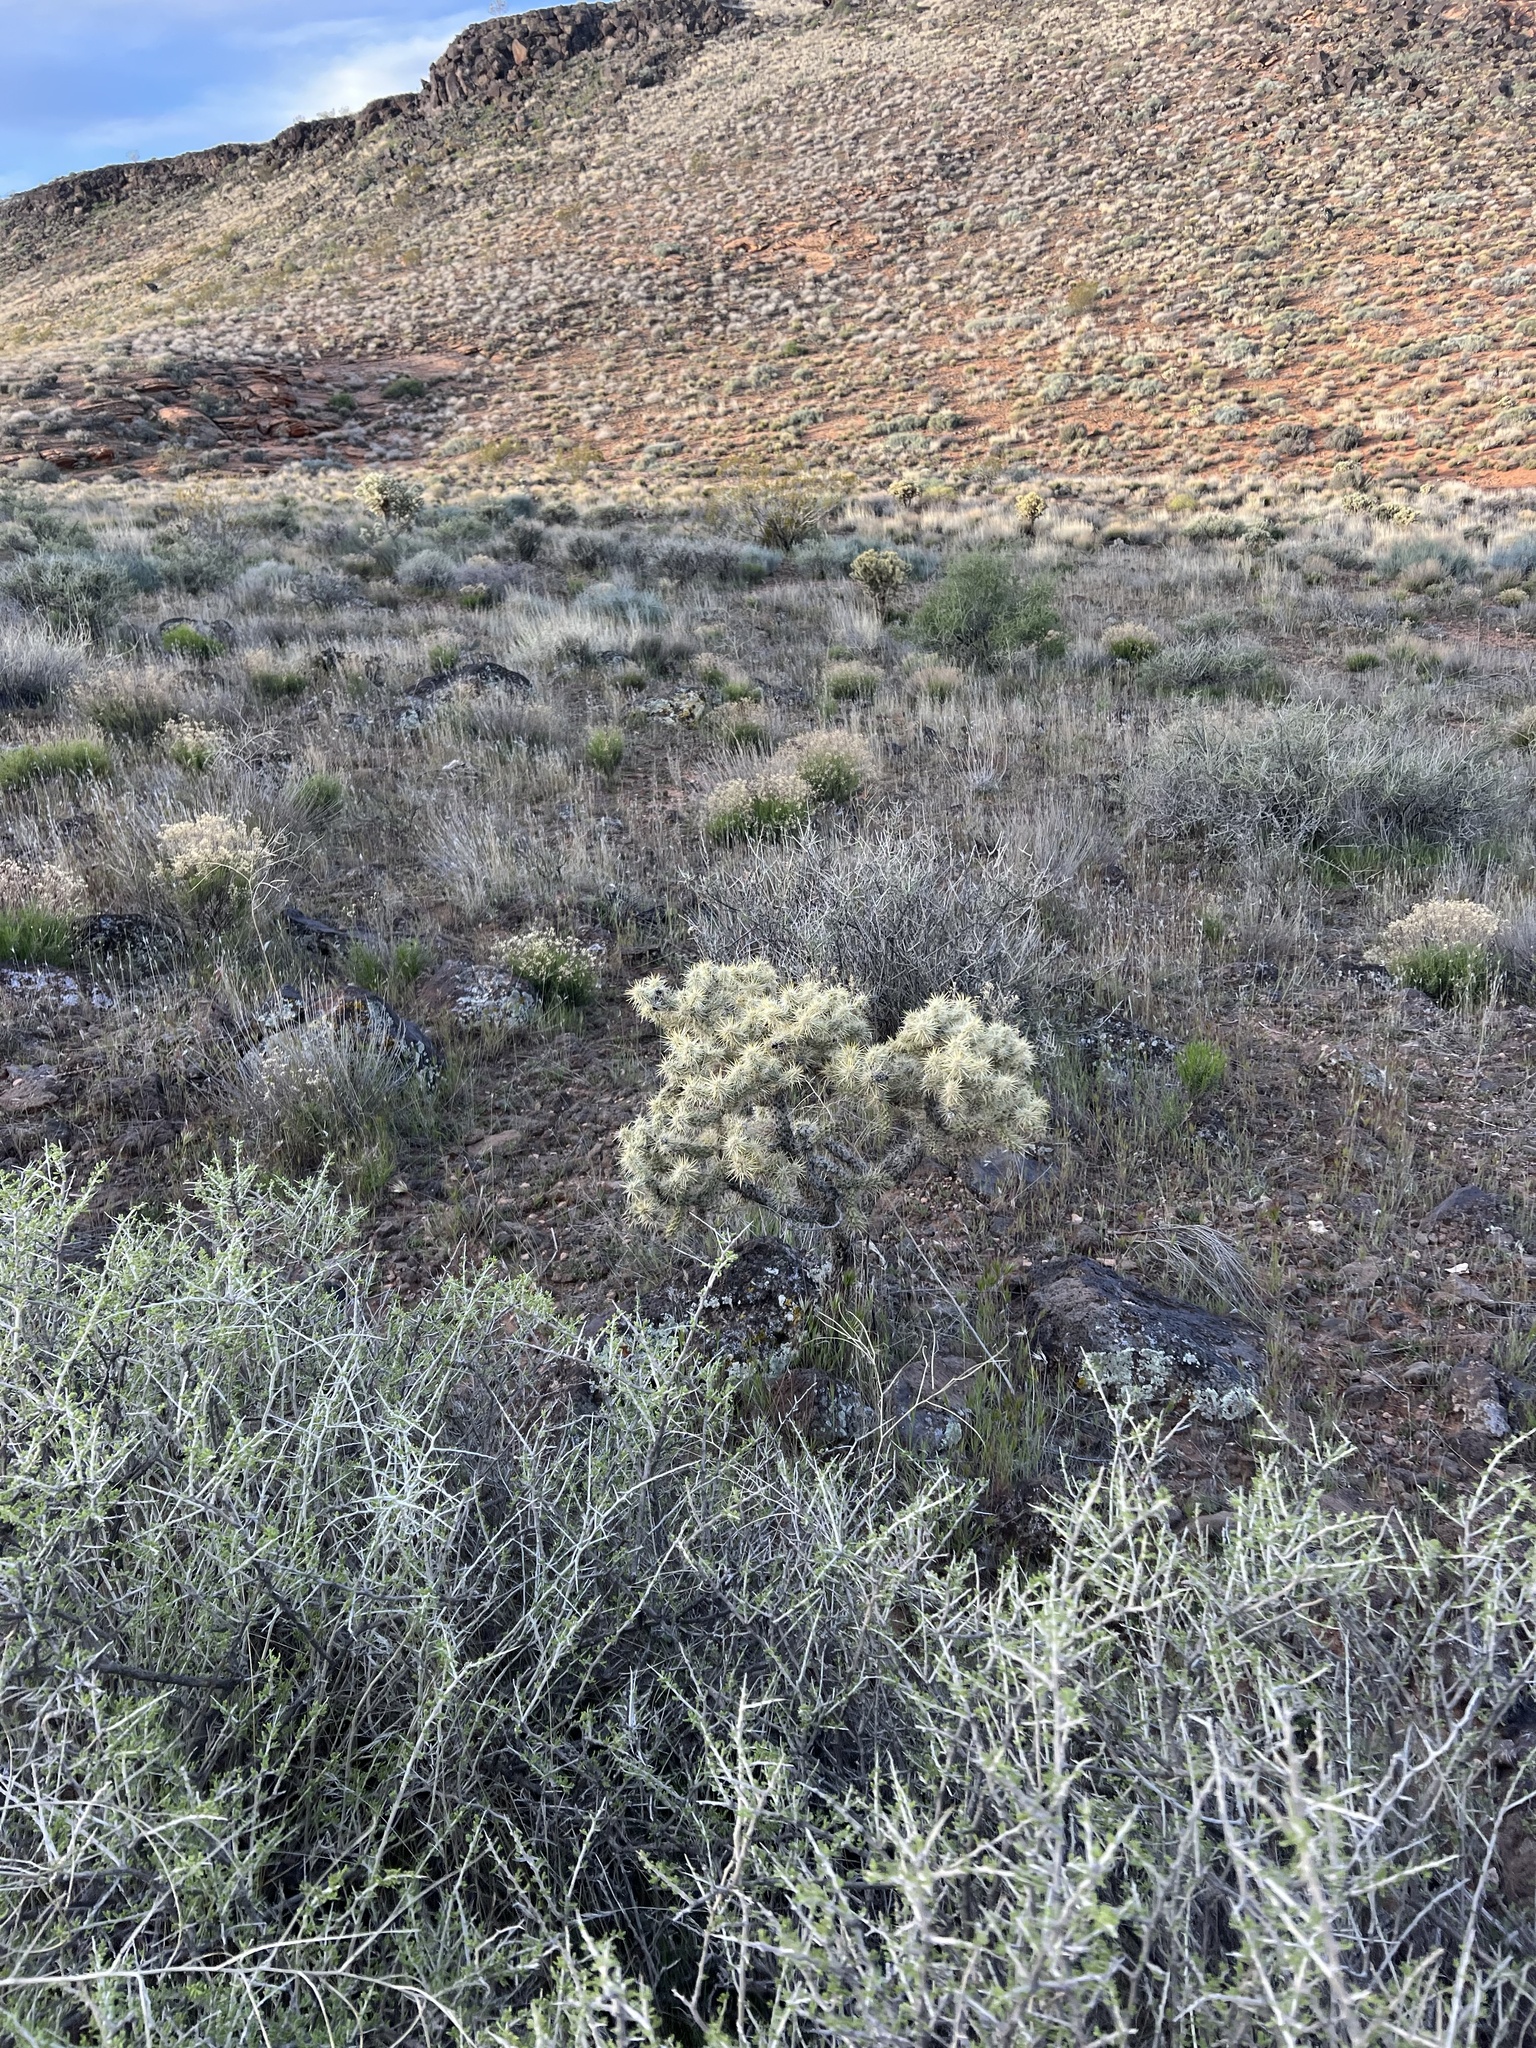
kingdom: Plantae
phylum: Tracheophyta
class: Magnoliopsida
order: Caryophyllales
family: Cactaceae
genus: Cylindropuntia
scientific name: Cylindropuntia echinocarpa
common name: Ground cholla
